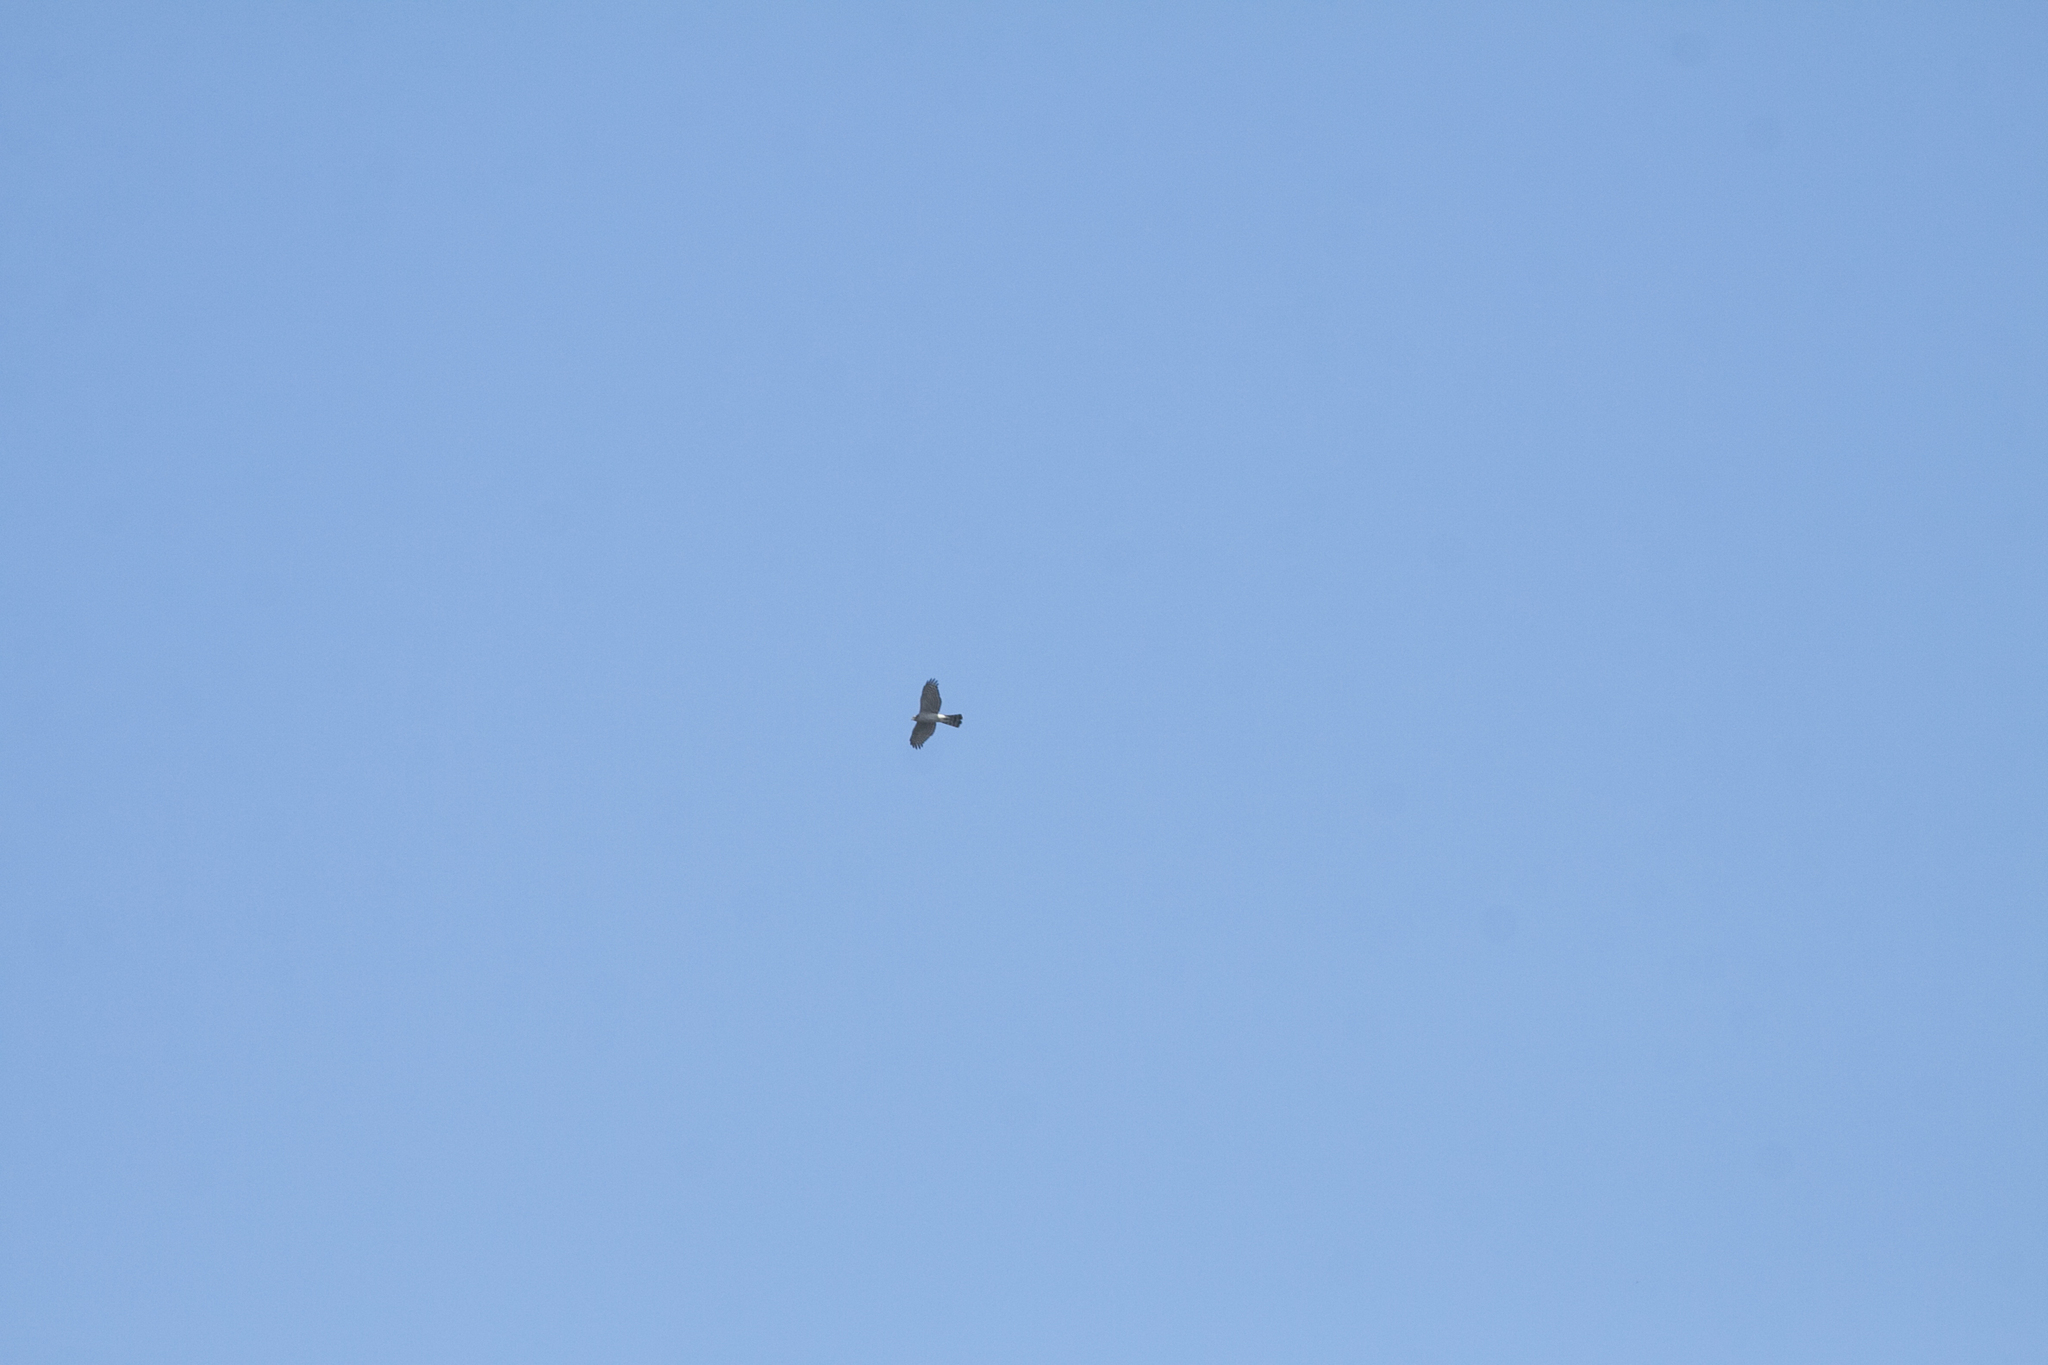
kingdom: Animalia
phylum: Chordata
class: Aves
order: Accipitriformes
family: Accipitridae
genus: Accipiter
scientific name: Accipiter nisus
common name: Eurasian sparrowhawk
